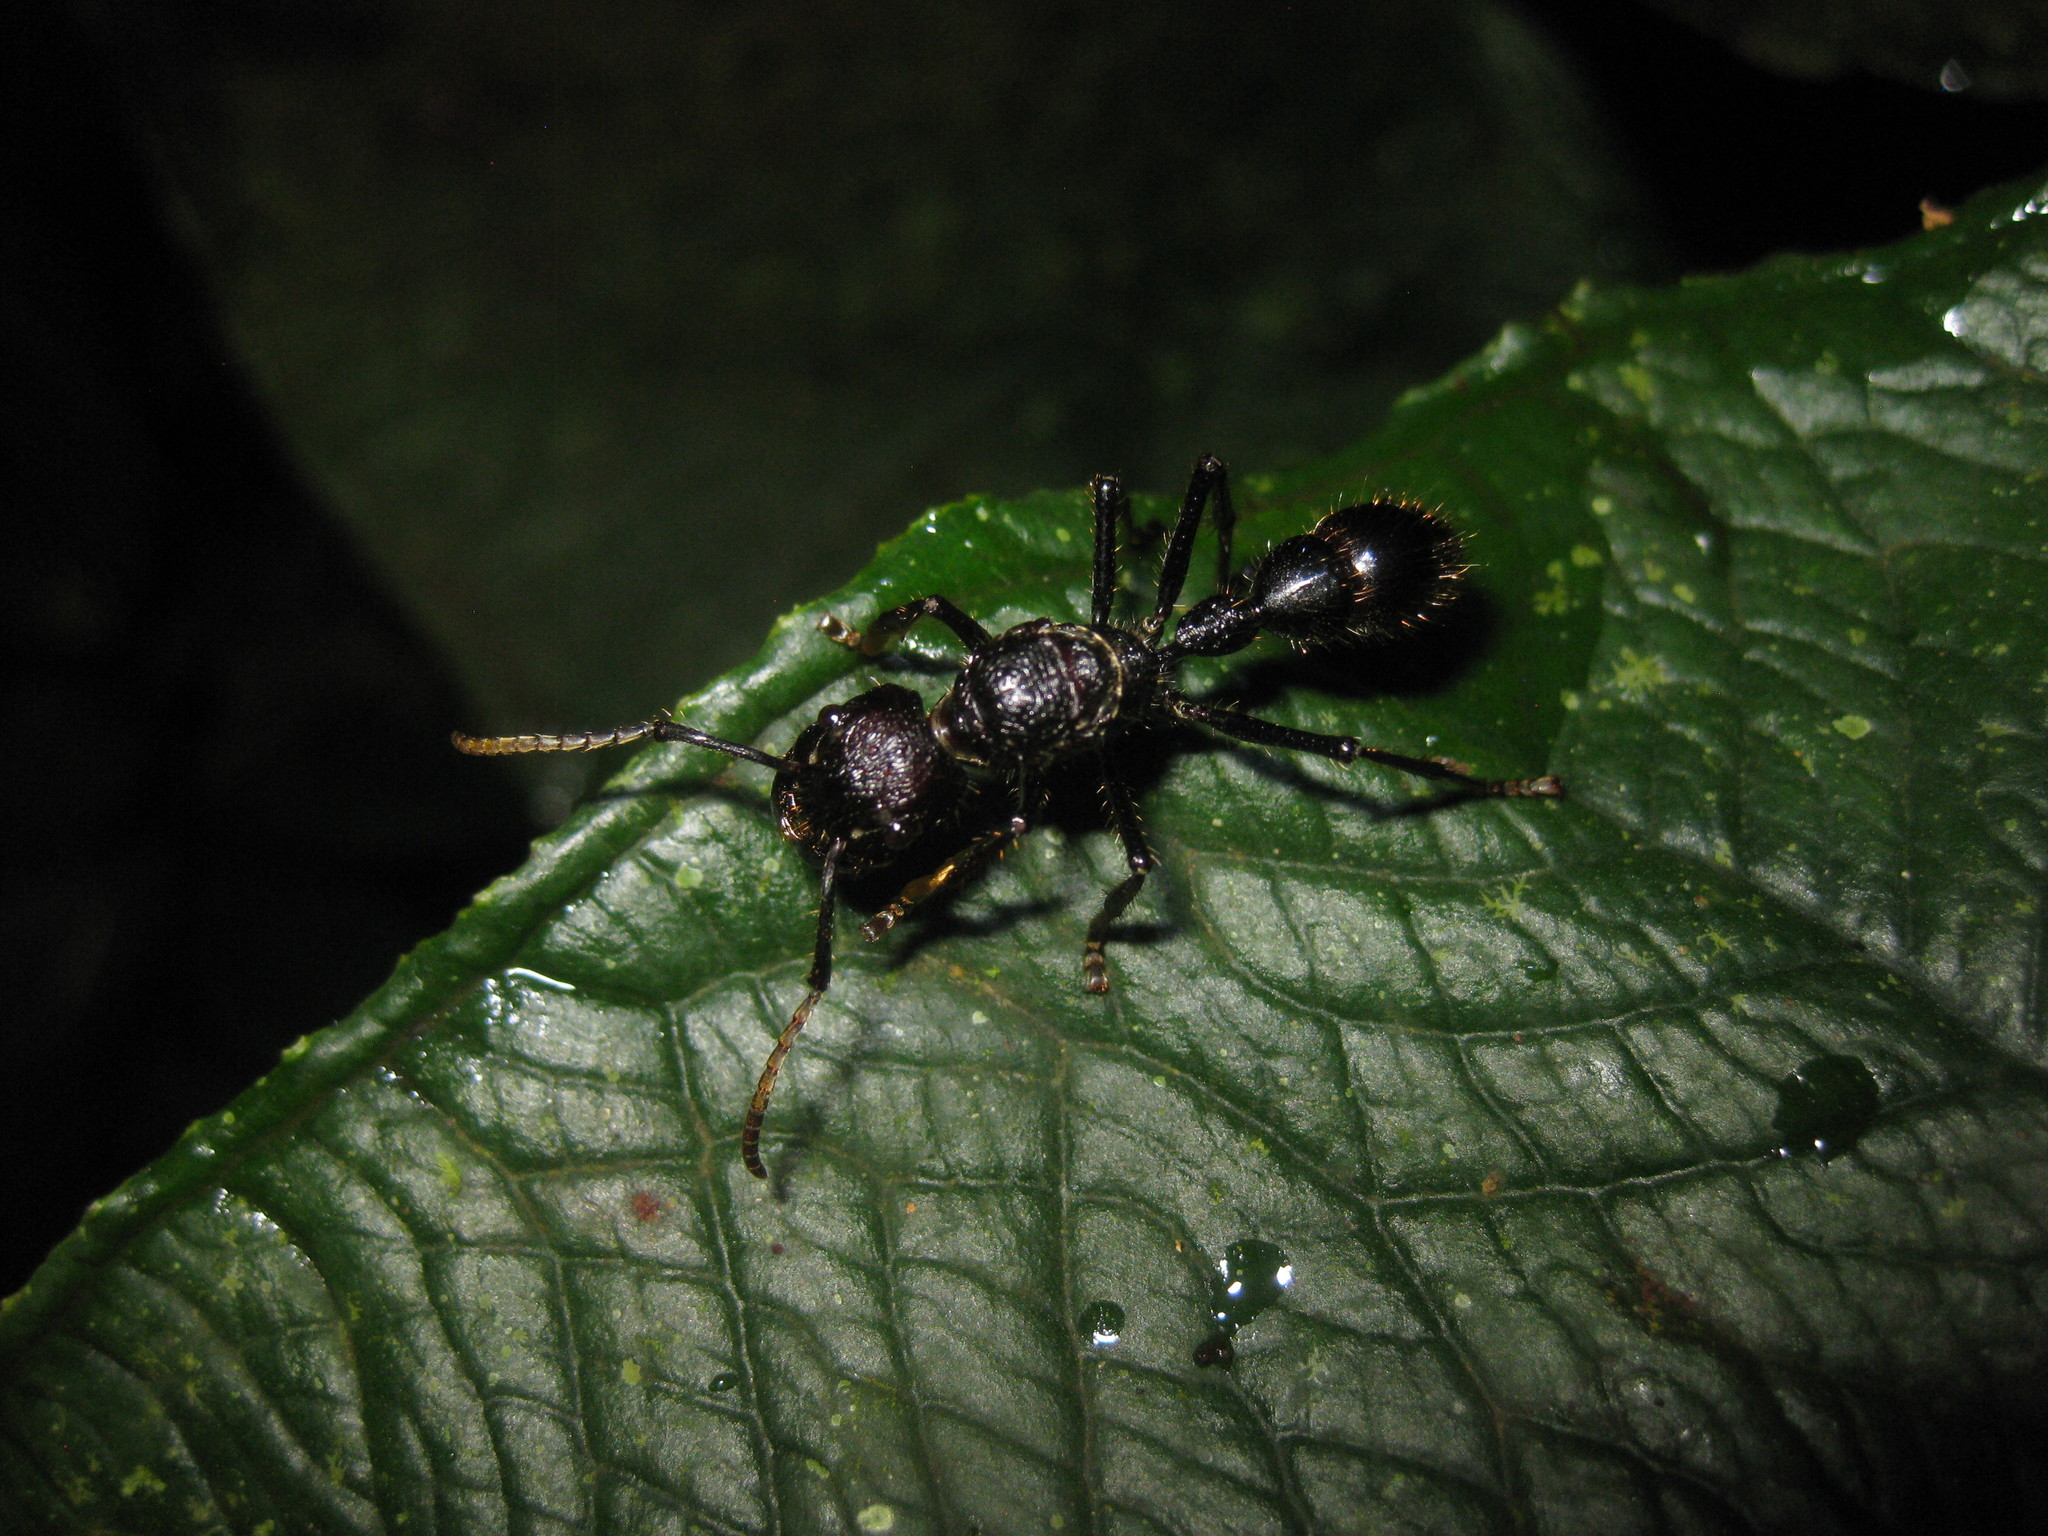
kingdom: Animalia
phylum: Arthropoda
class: Insecta
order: Hymenoptera
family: Formicidae
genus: Paraponera
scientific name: Paraponera clavata
